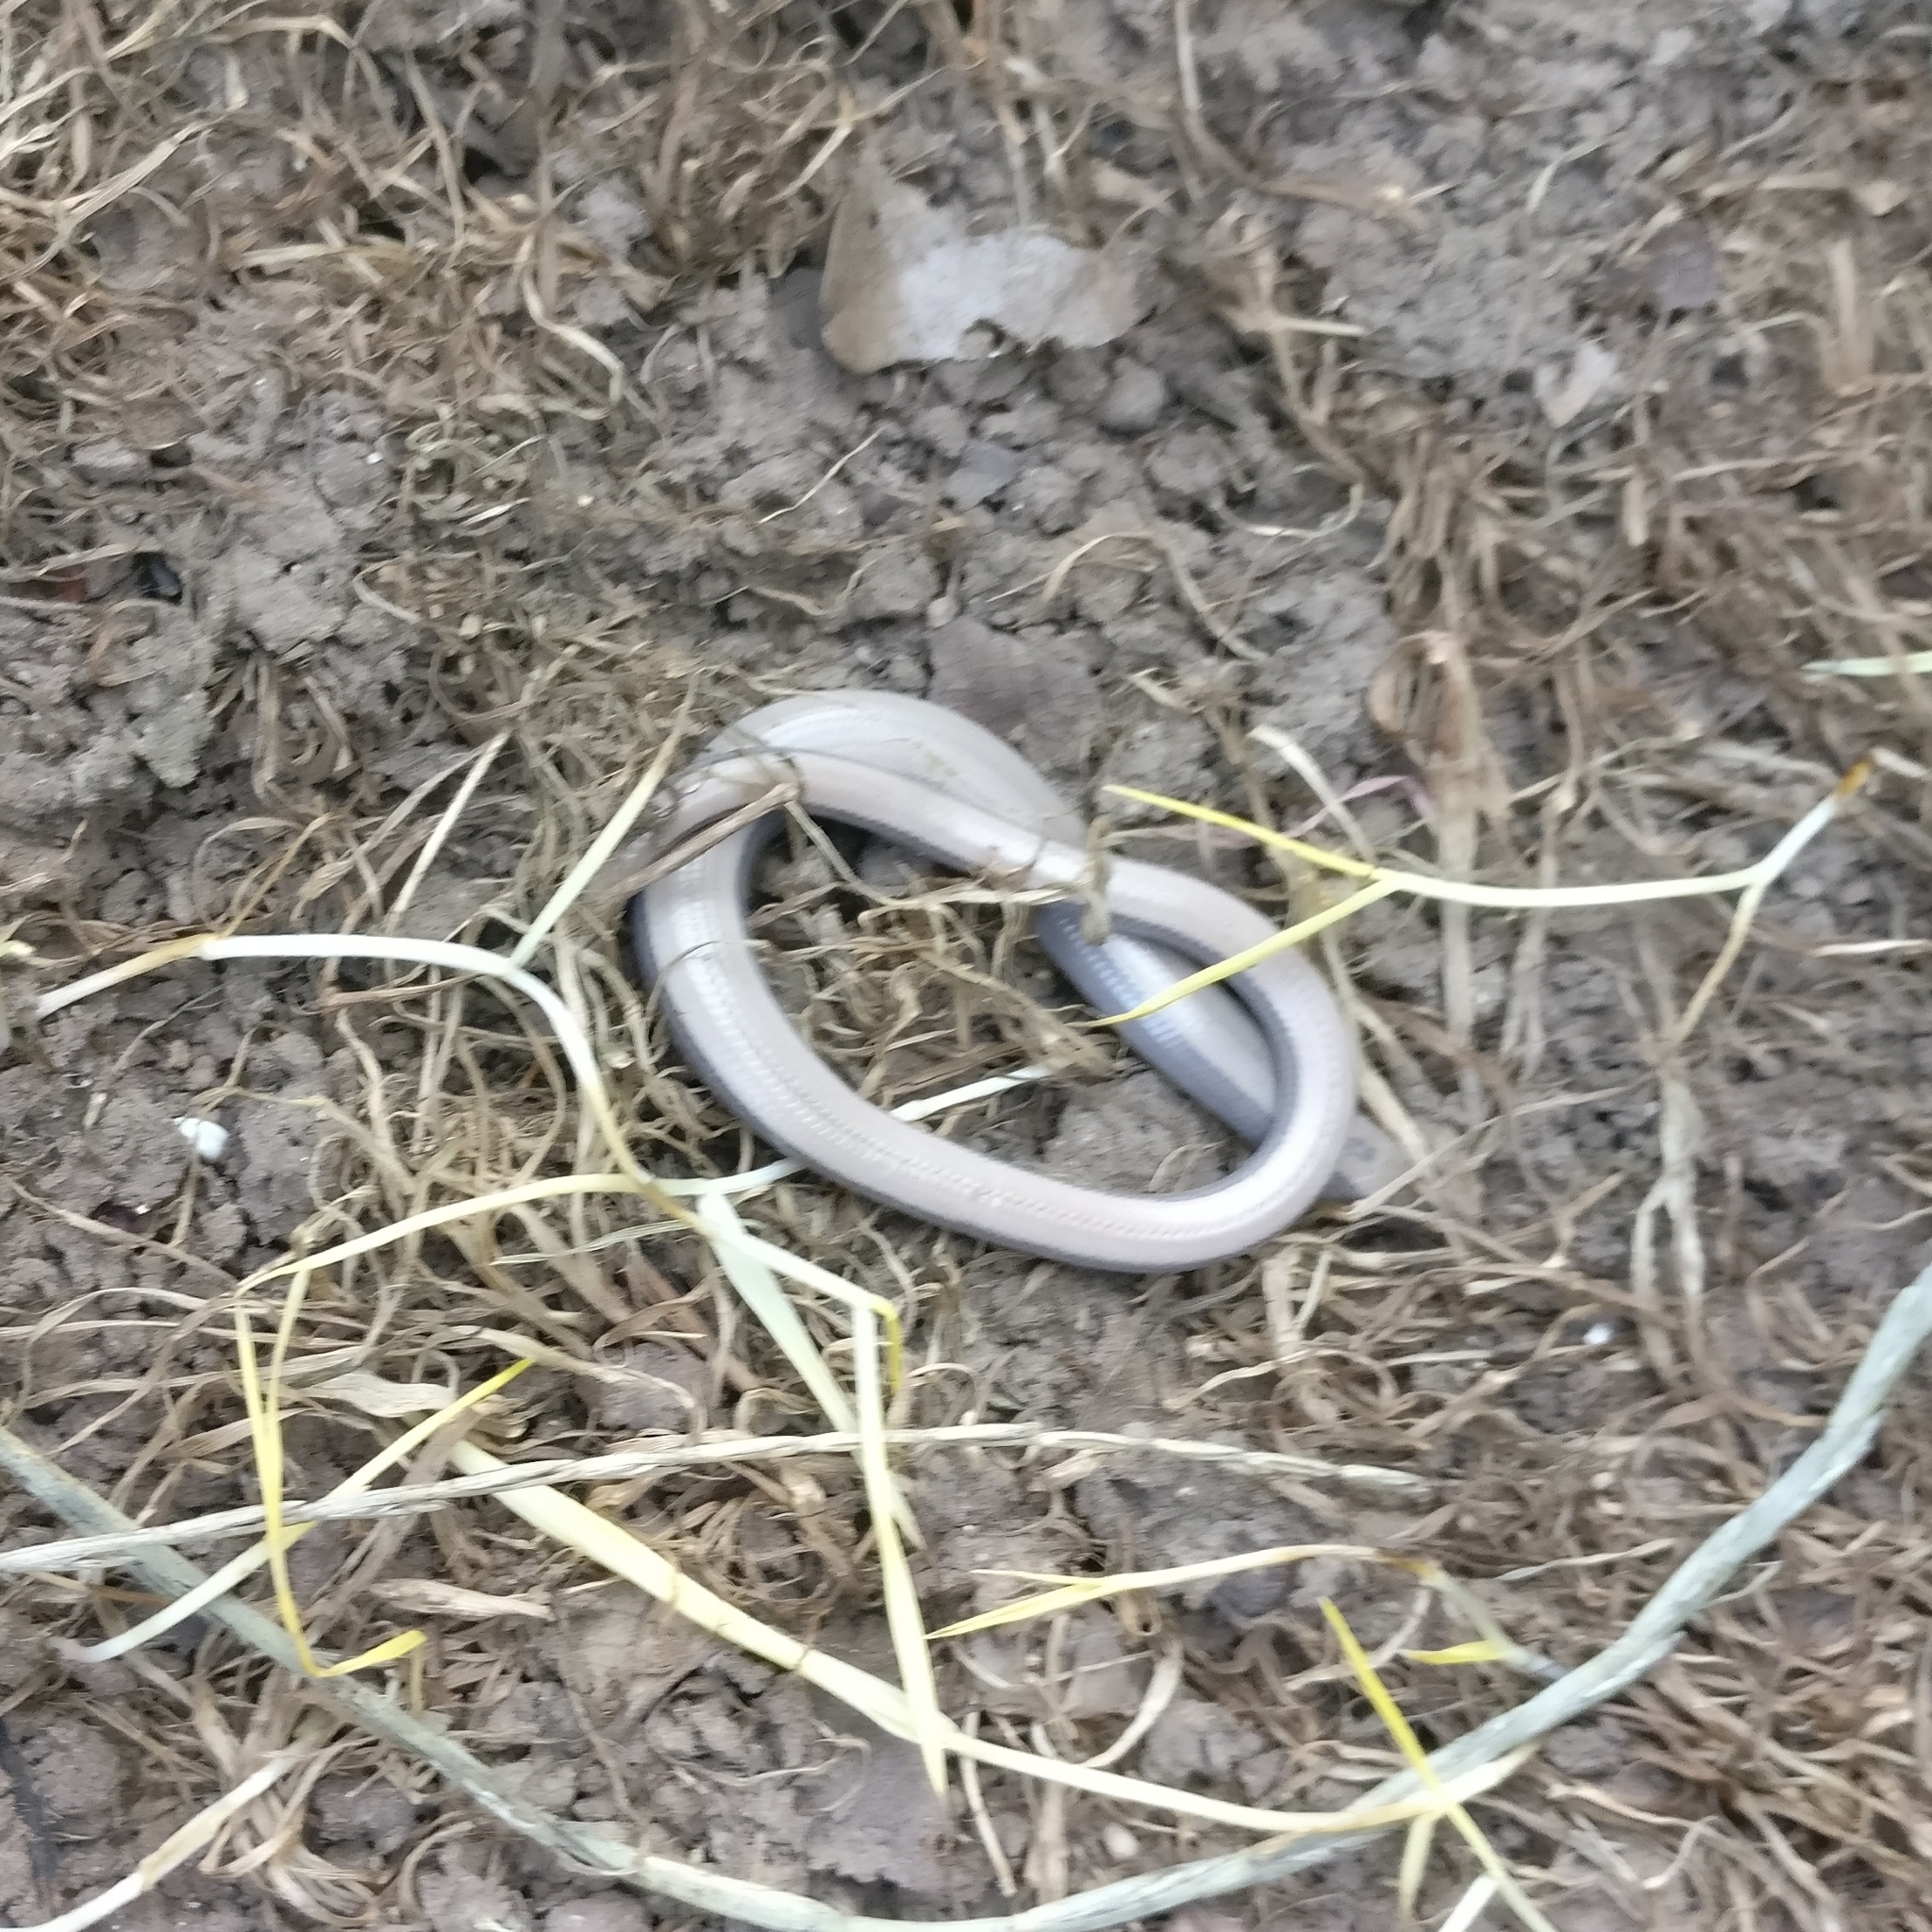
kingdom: Animalia
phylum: Chordata
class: Squamata
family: Anguidae
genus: Anguis
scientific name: Anguis fragilis
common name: Slow worm
